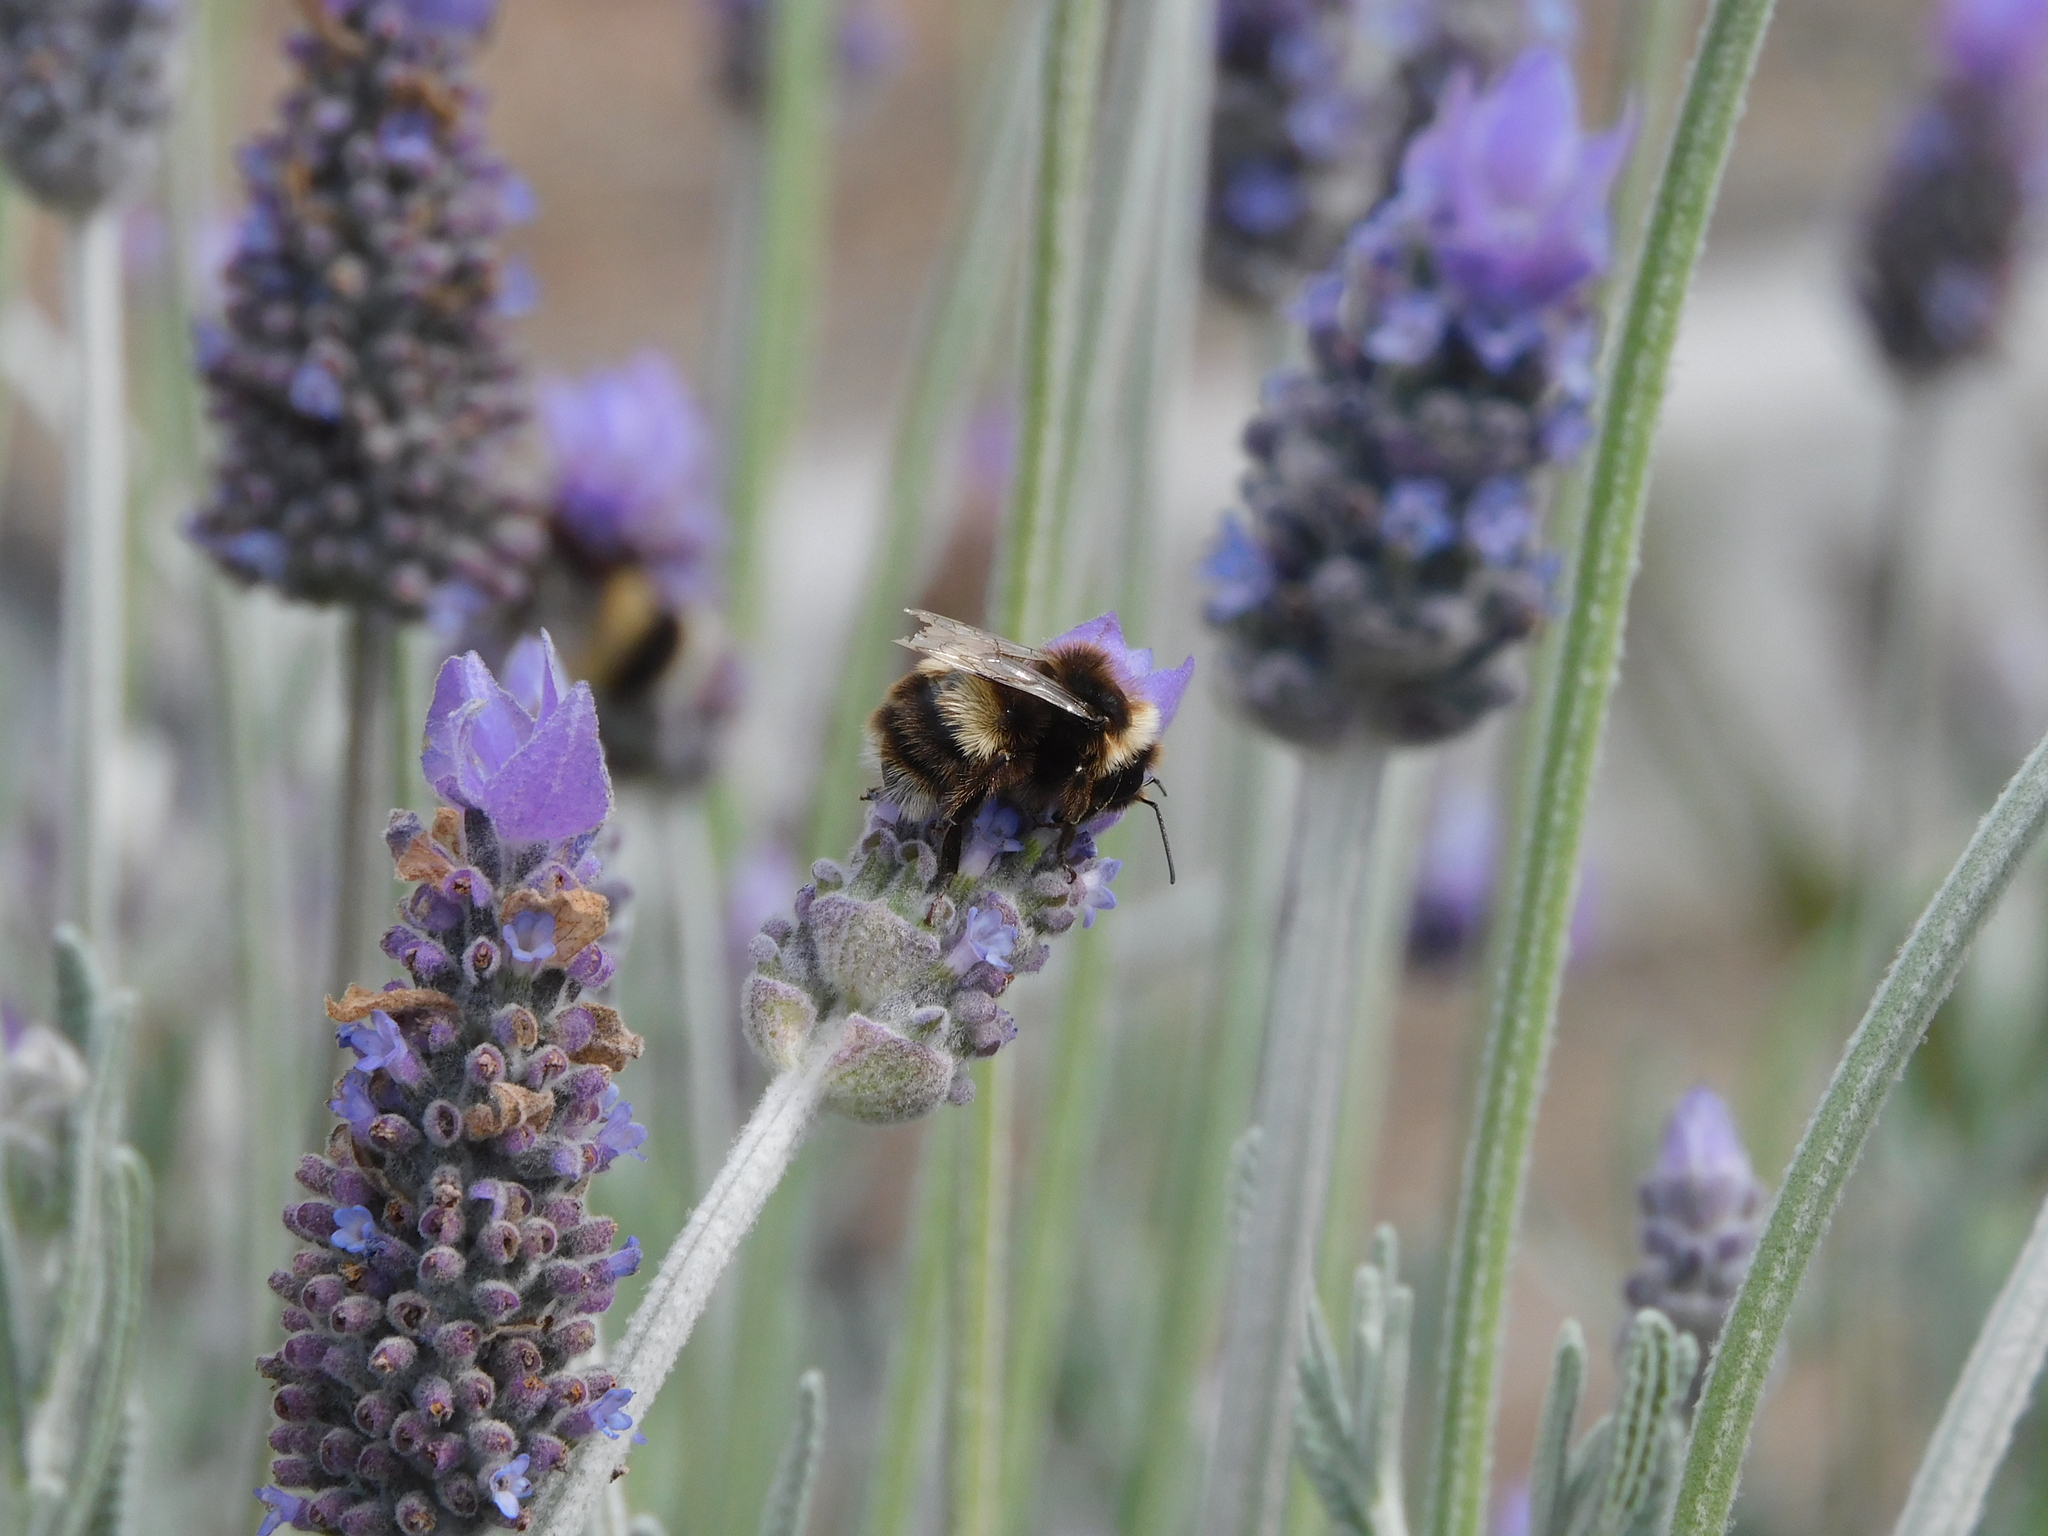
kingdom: Animalia
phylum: Arthropoda
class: Insecta
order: Hymenoptera
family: Apidae
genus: Bombus
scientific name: Bombus terrestris
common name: Buff-tailed bumblebee
